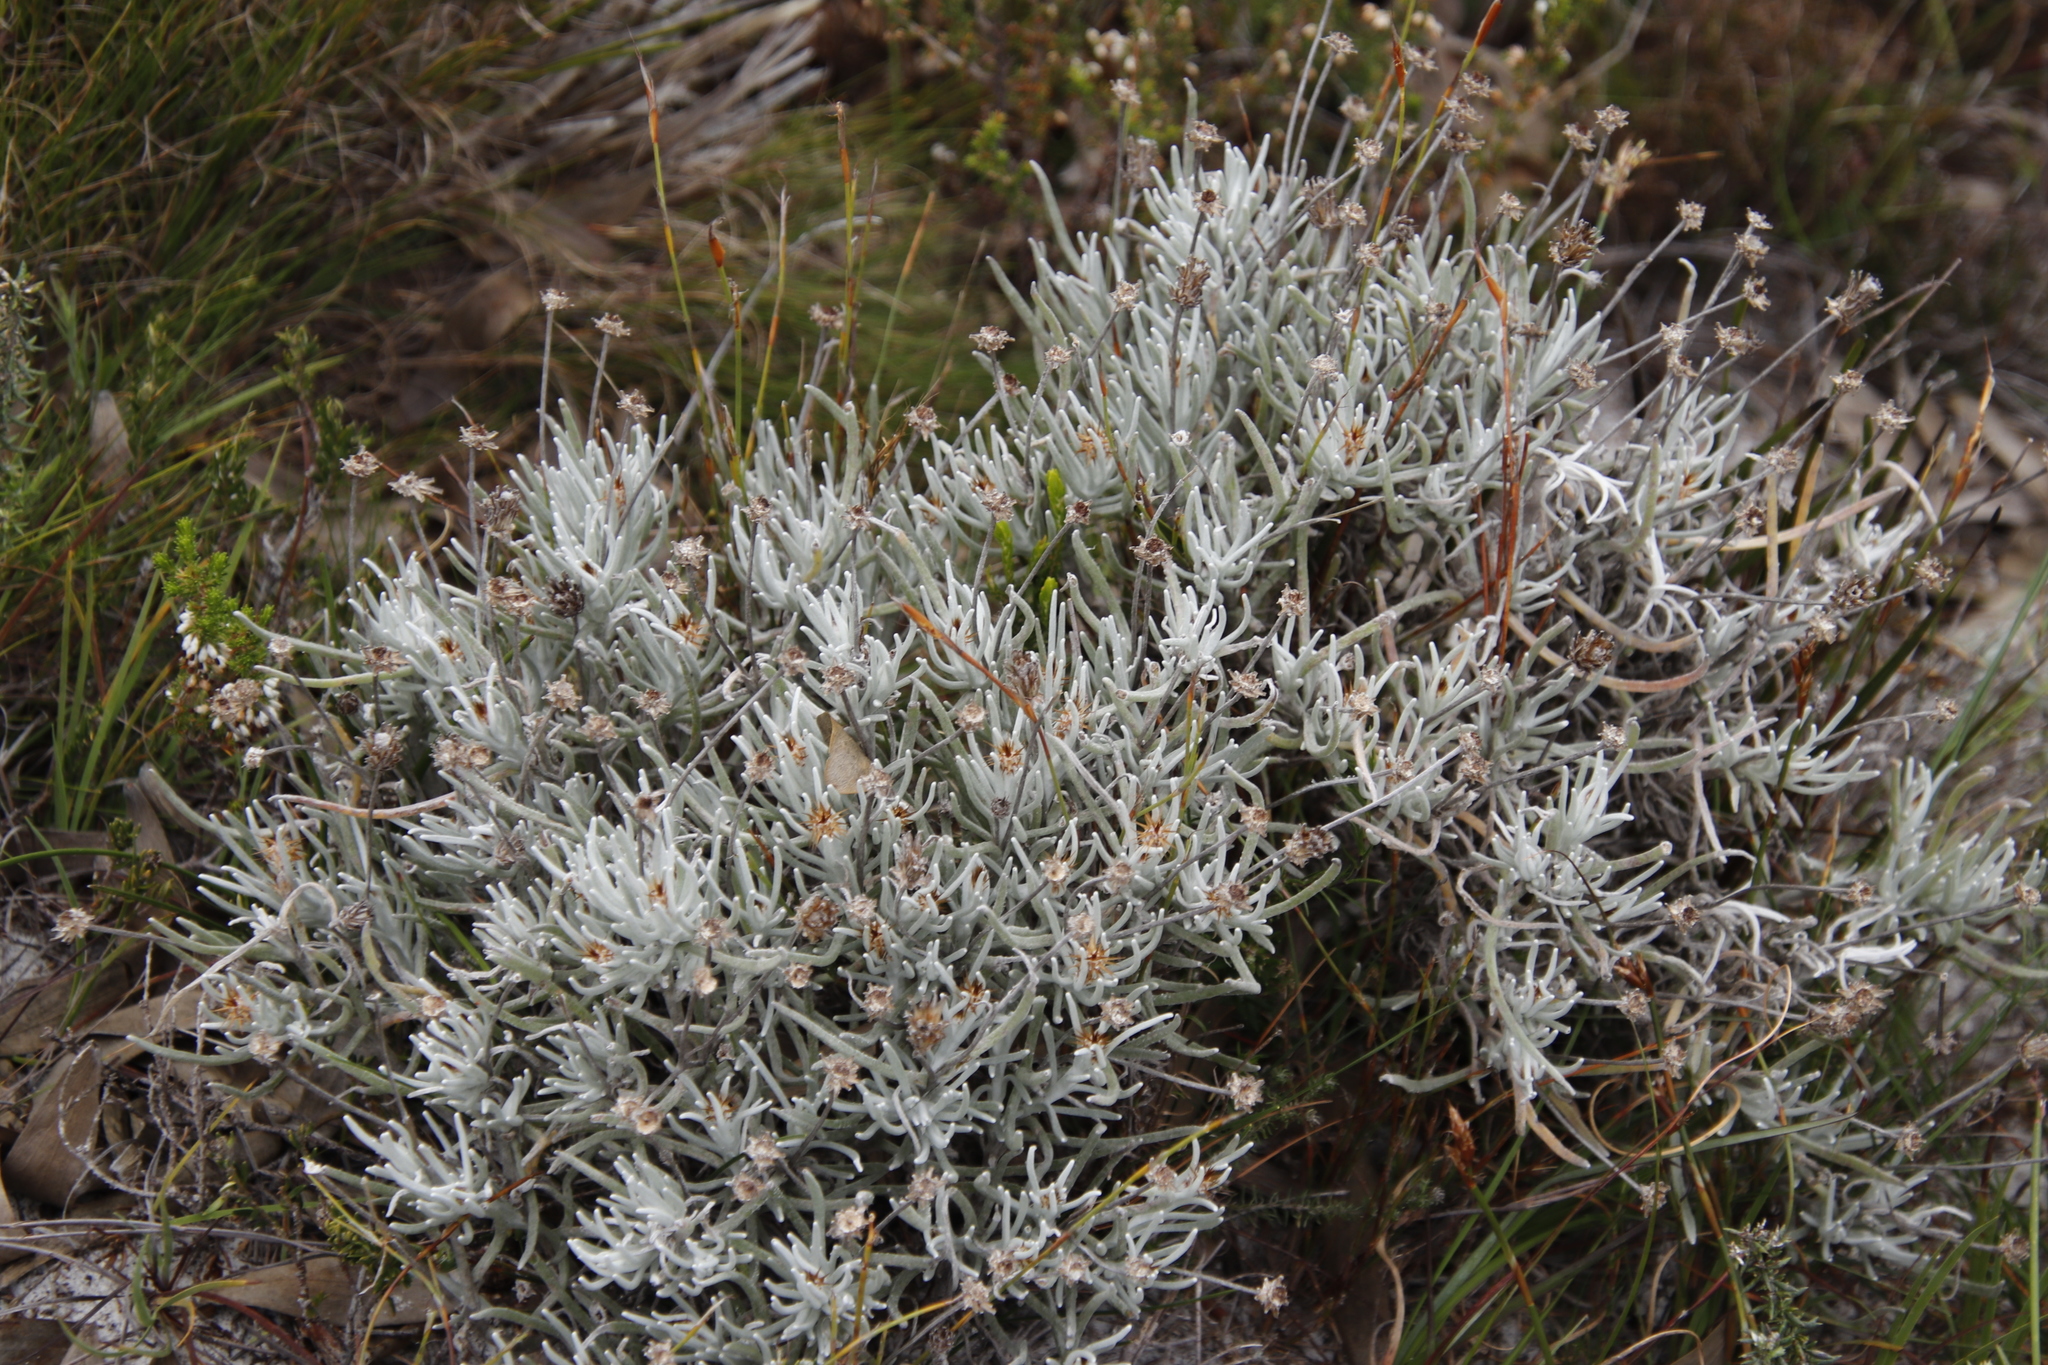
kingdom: Plantae
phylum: Tracheophyta
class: Magnoliopsida
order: Asterales
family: Asteraceae
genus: Syncarpha
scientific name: Syncarpha gnaphaloides
